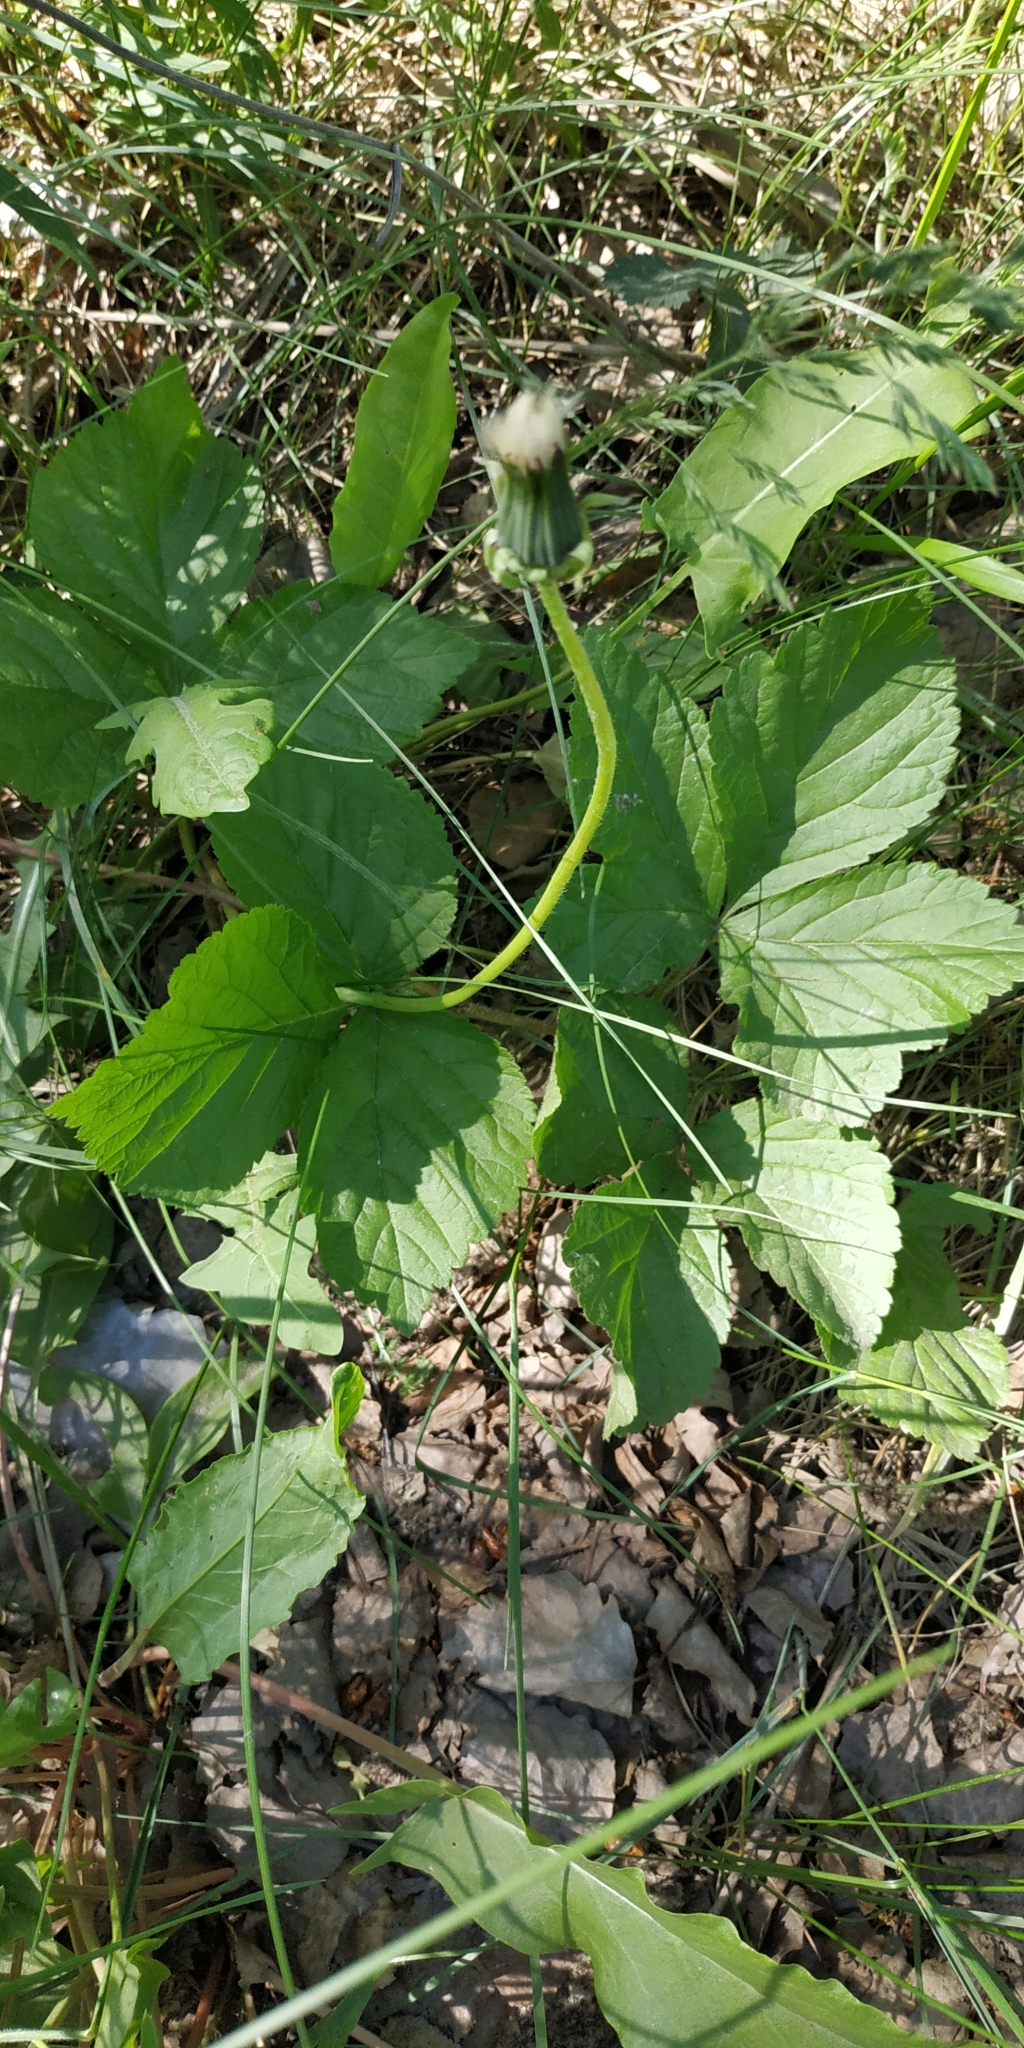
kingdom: Plantae
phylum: Tracheophyta
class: Magnoliopsida
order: Rosales
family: Rosaceae
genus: Rubus
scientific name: Rubus saxatilis
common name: Stone bramble
